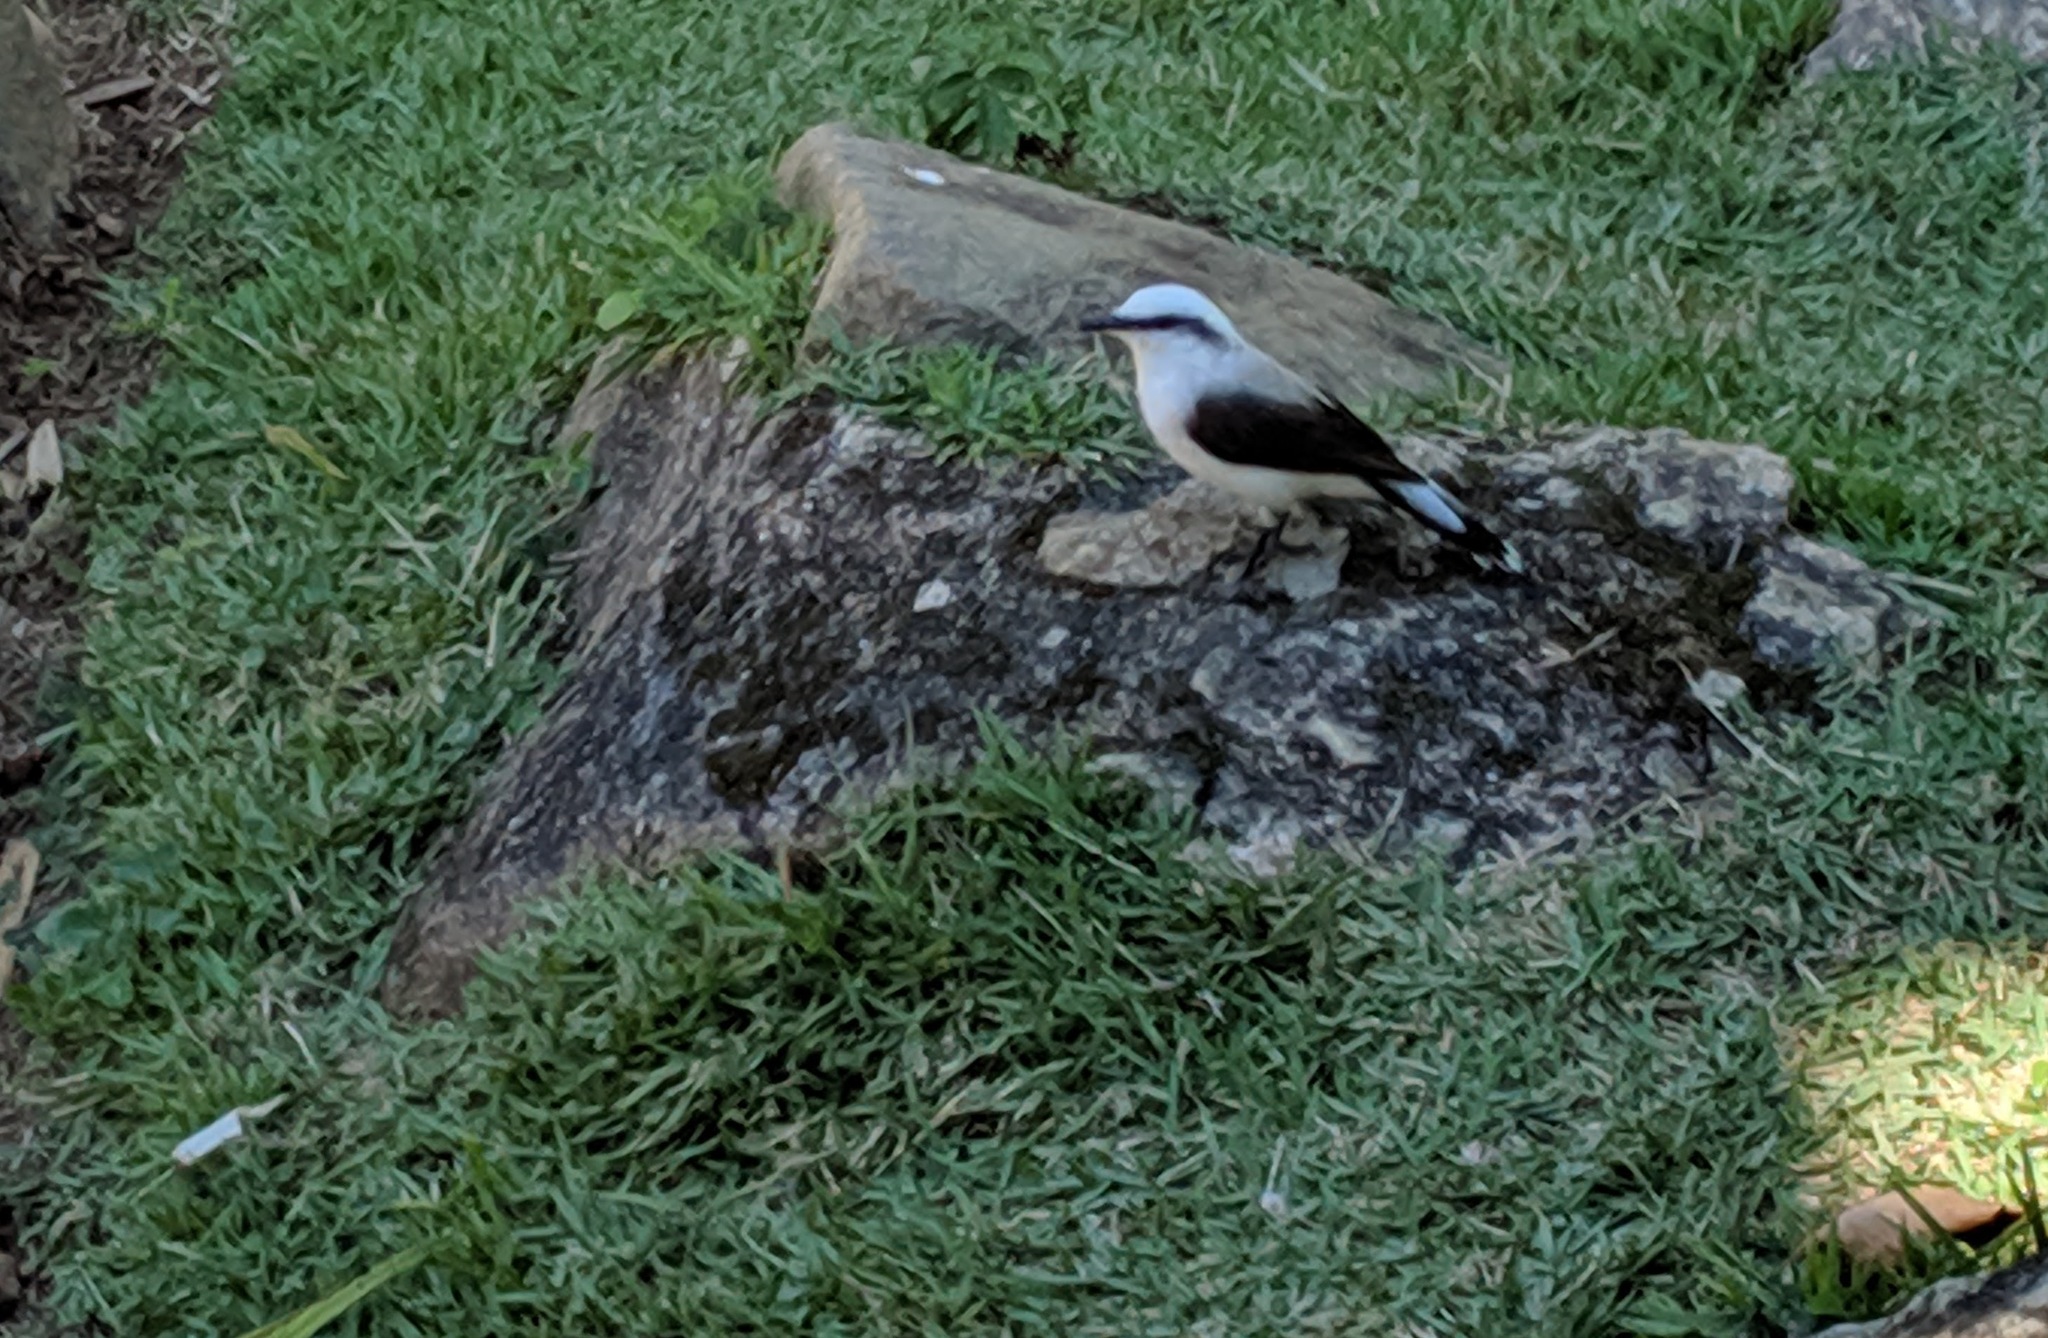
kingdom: Animalia
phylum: Chordata
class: Aves
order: Passeriformes
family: Tyrannidae
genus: Fluvicola
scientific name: Fluvicola nengeta
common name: Masked water tyrant
